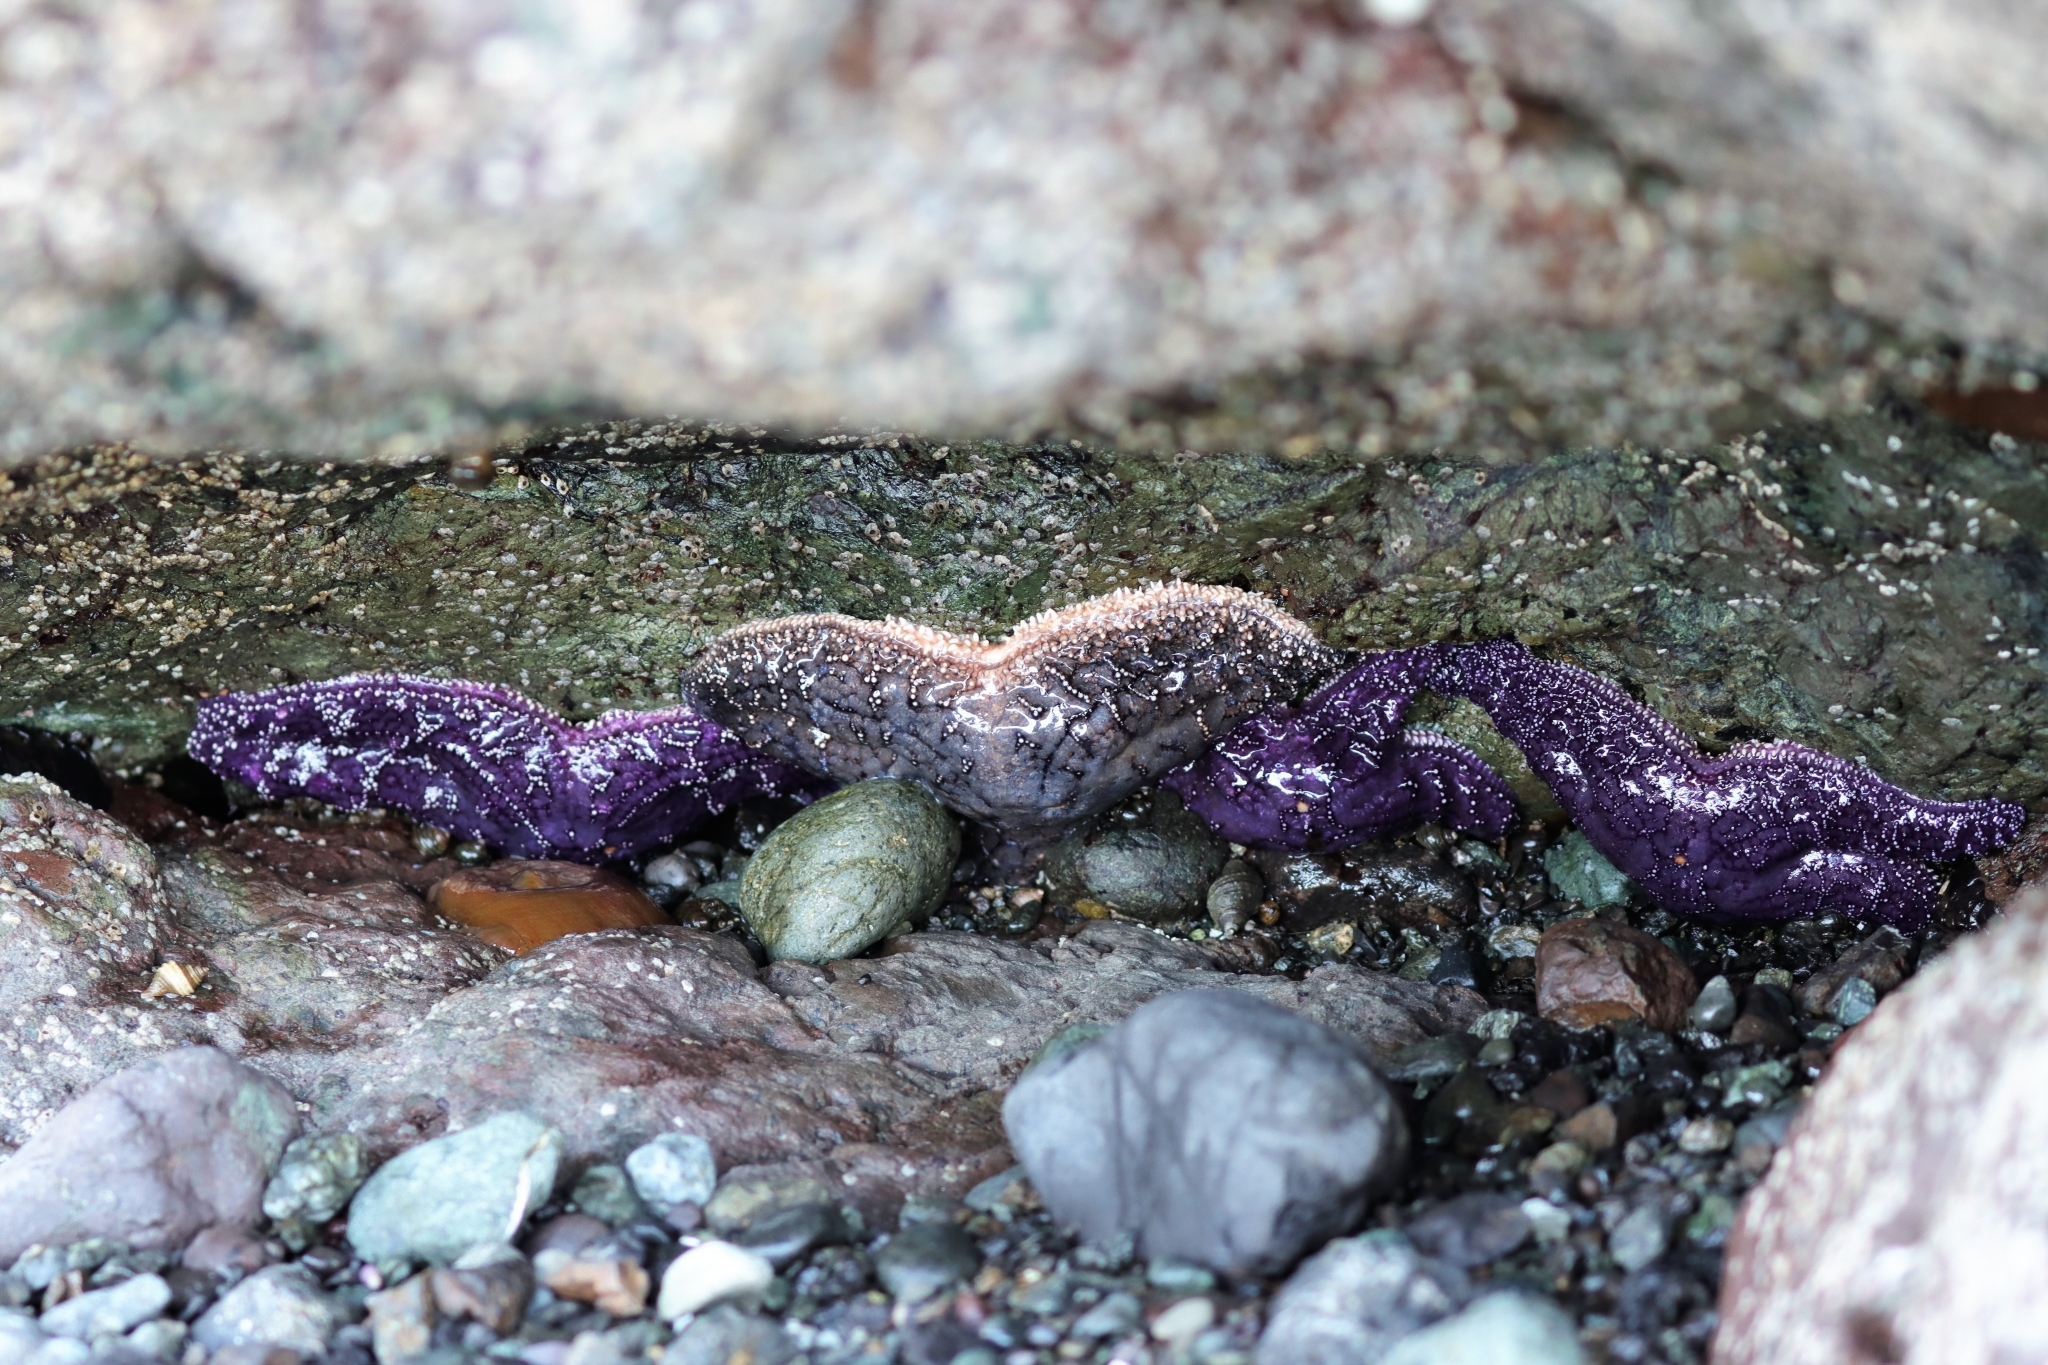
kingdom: Animalia
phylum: Echinodermata
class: Asteroidea
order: Forcipulatida
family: Asteriidae
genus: Pisaster
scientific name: Pisaster ochraceus
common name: Ochre stars
